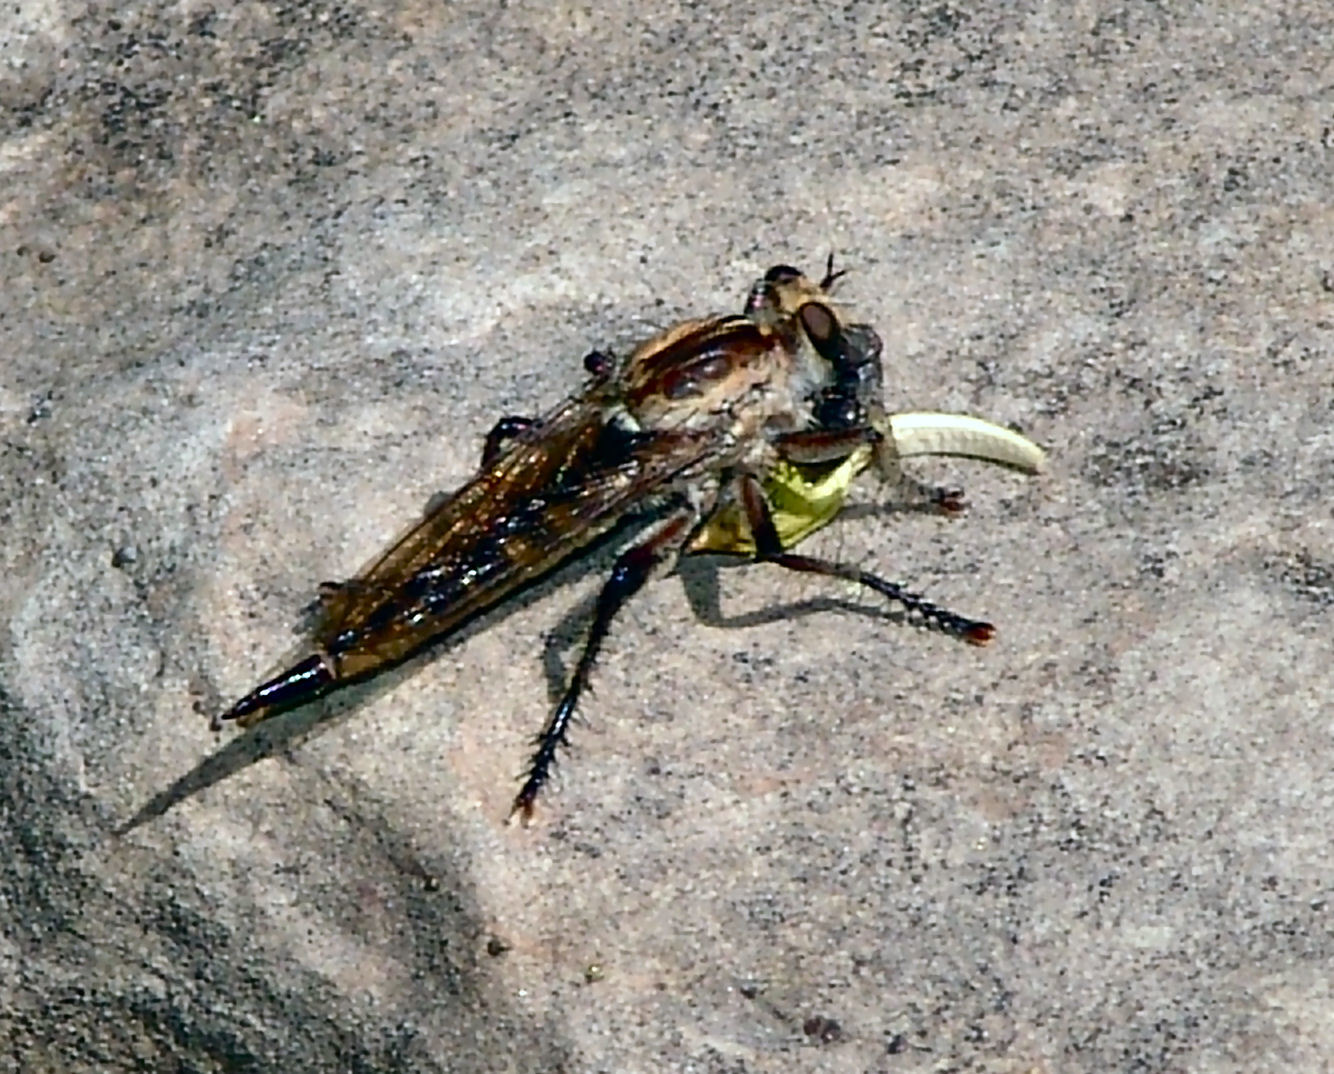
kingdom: Animalia
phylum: Arthropoda
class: Insecta
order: Diptera
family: Asilidae
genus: Triorla
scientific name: Triorla interrupta
